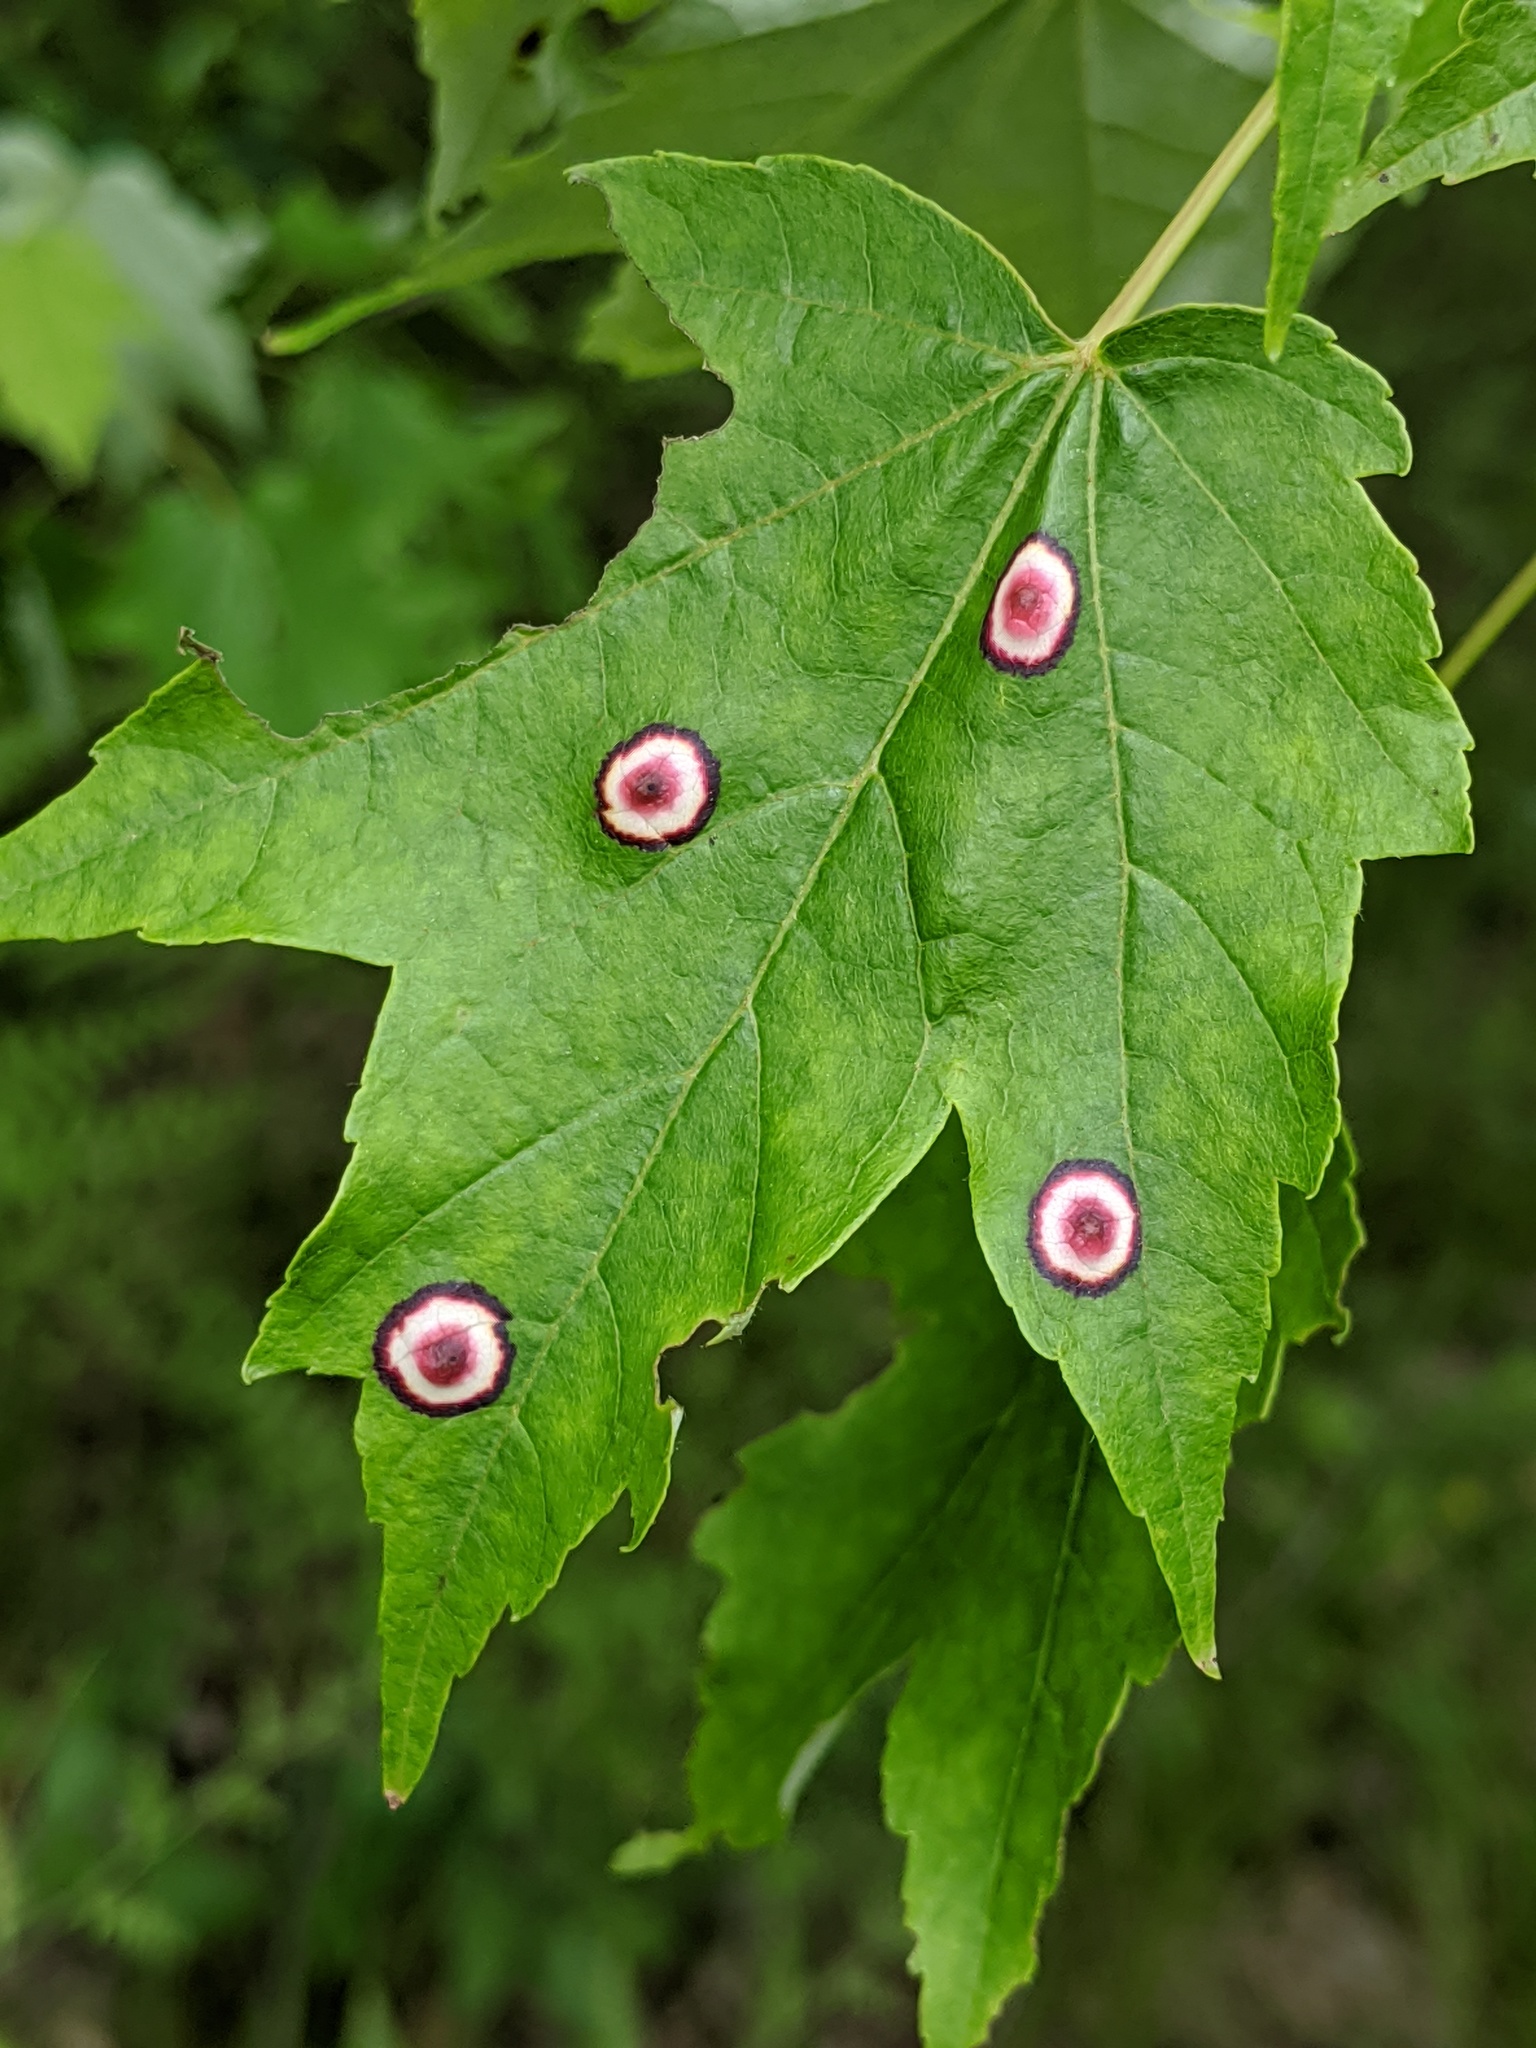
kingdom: Animalia
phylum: Arthropoda
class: Insecta
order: Diptera
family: Cecidomyiidae
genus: Acericecis
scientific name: Acericecis ocellaris
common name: Ocellate gall midge
